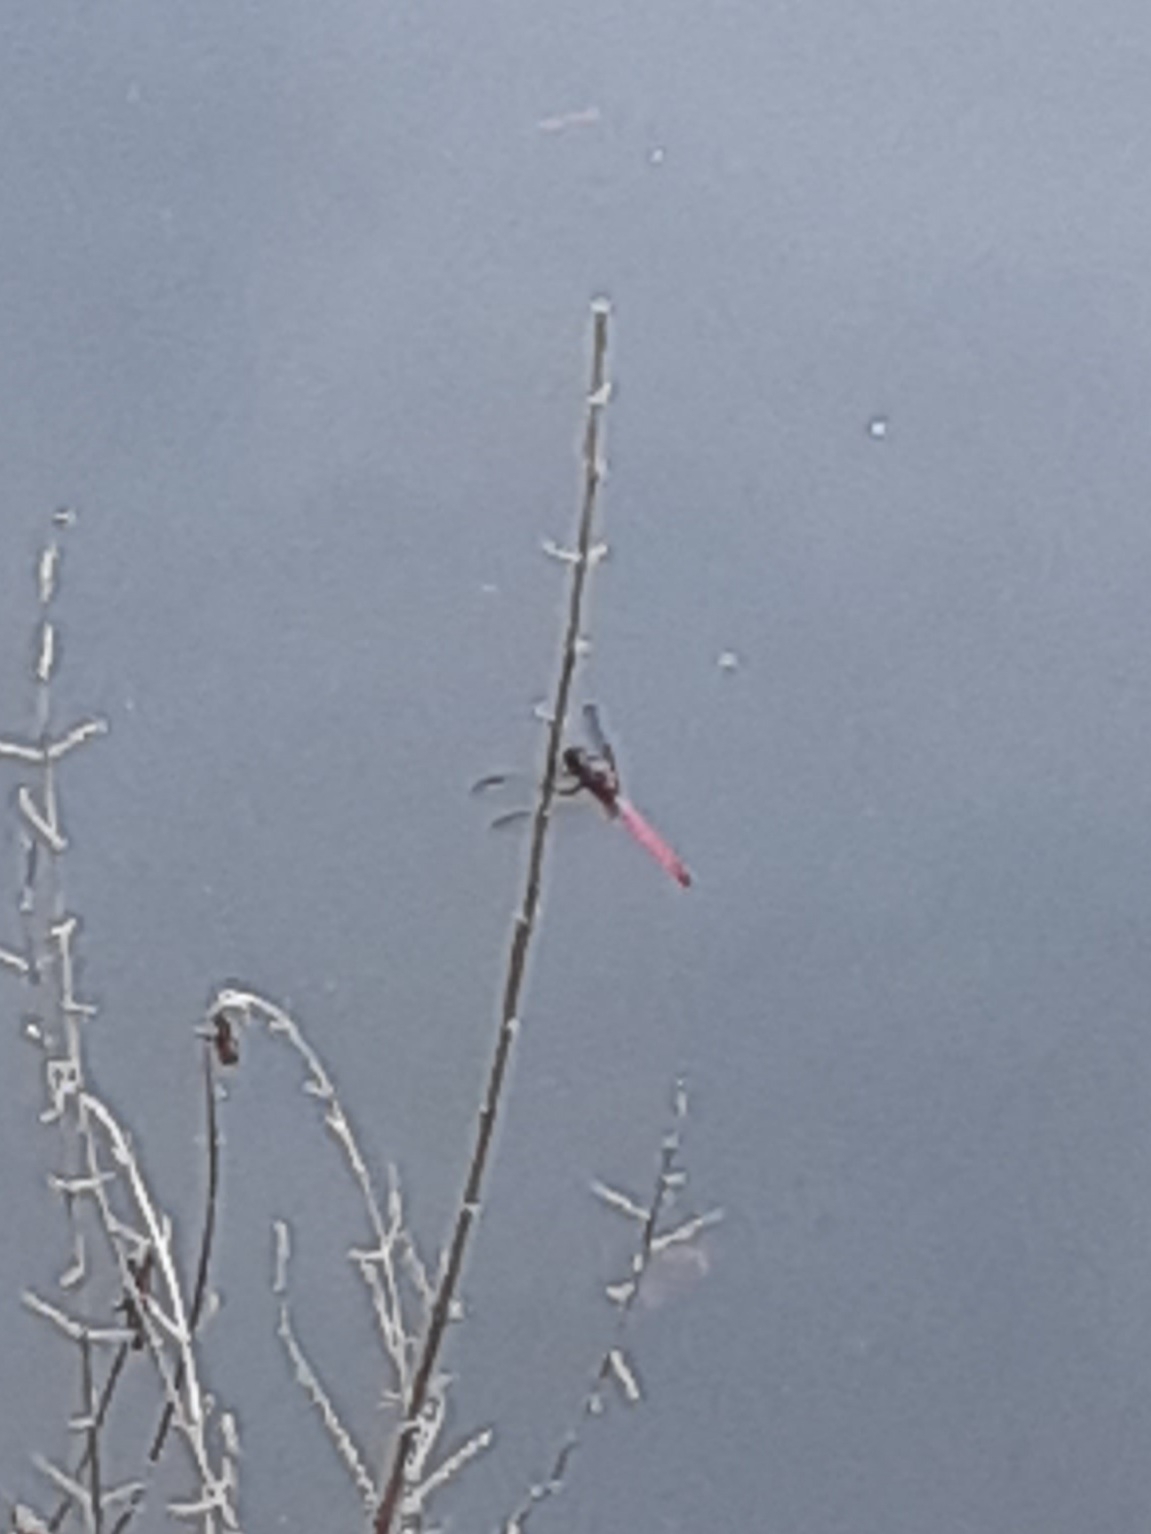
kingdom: Animalia
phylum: Arthropoda
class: Insecta
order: Odonata
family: Libellulidae
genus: Orthemis
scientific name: Orthemis ferruginea
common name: Roseate skimmer
